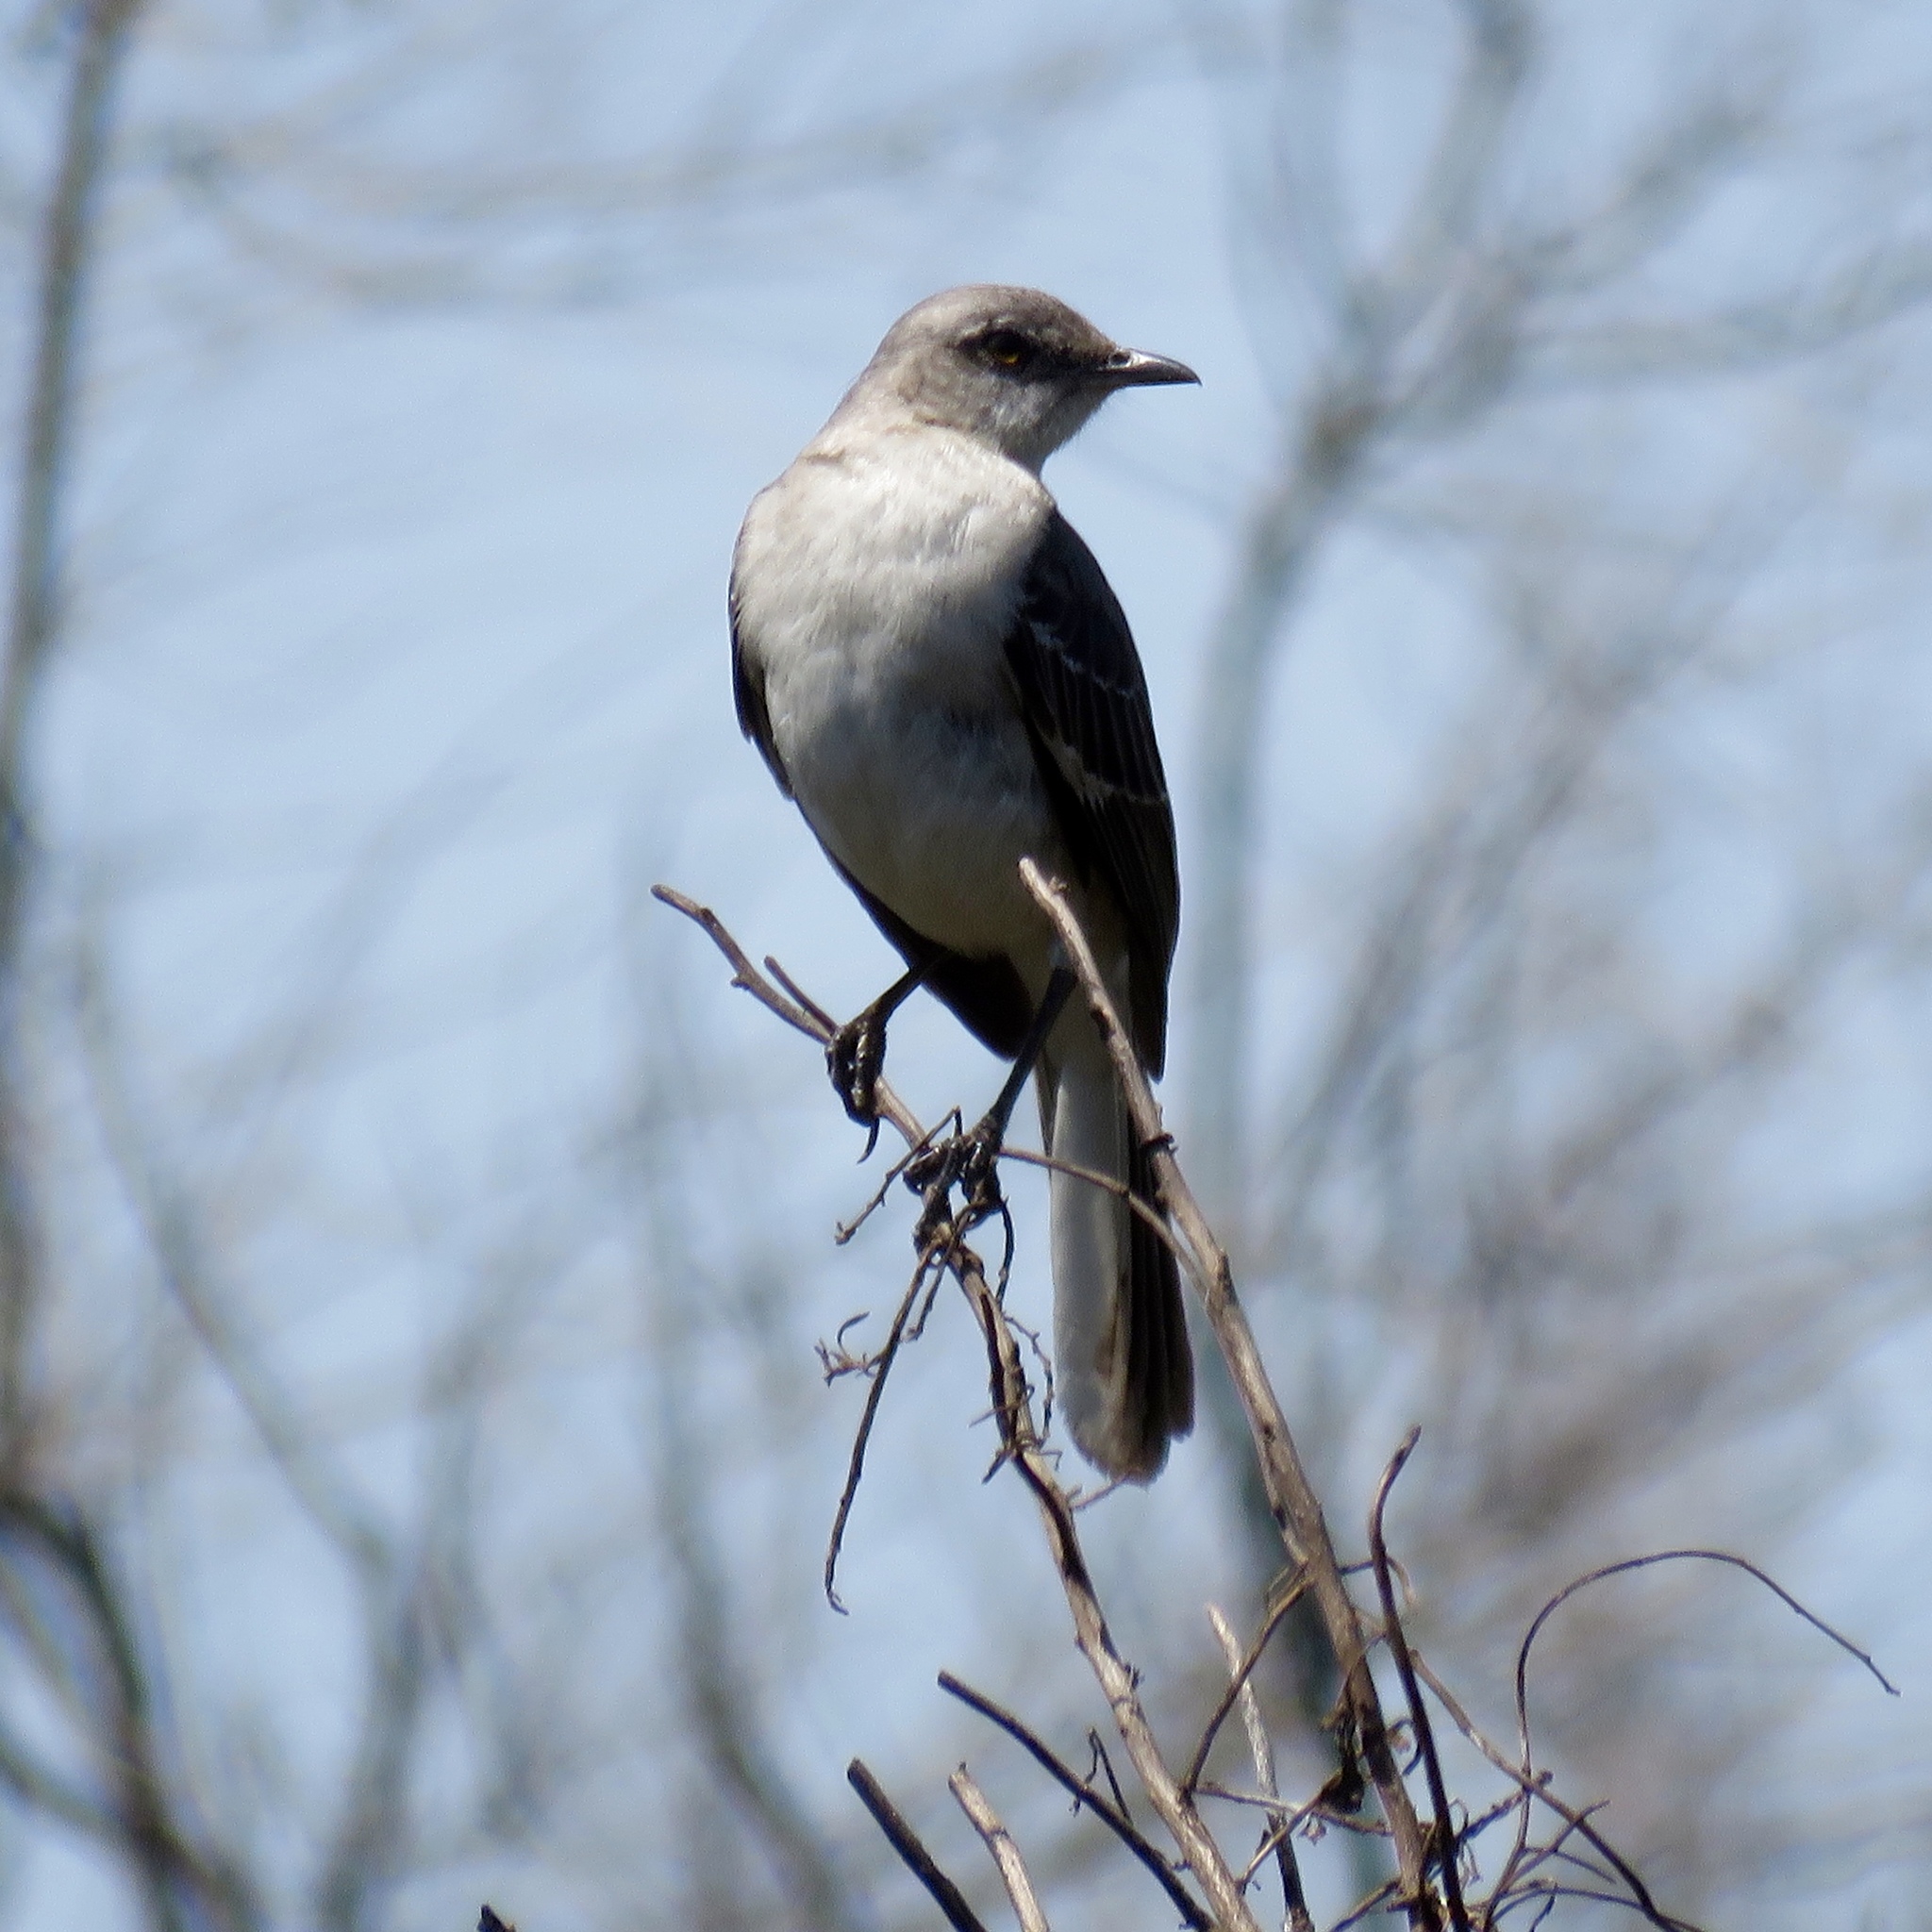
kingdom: Animalia
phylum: Chordata
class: Aves
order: Passeriformes
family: Mimidae
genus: Mimus
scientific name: Mimus polyglottos
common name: Northern mockingbird
